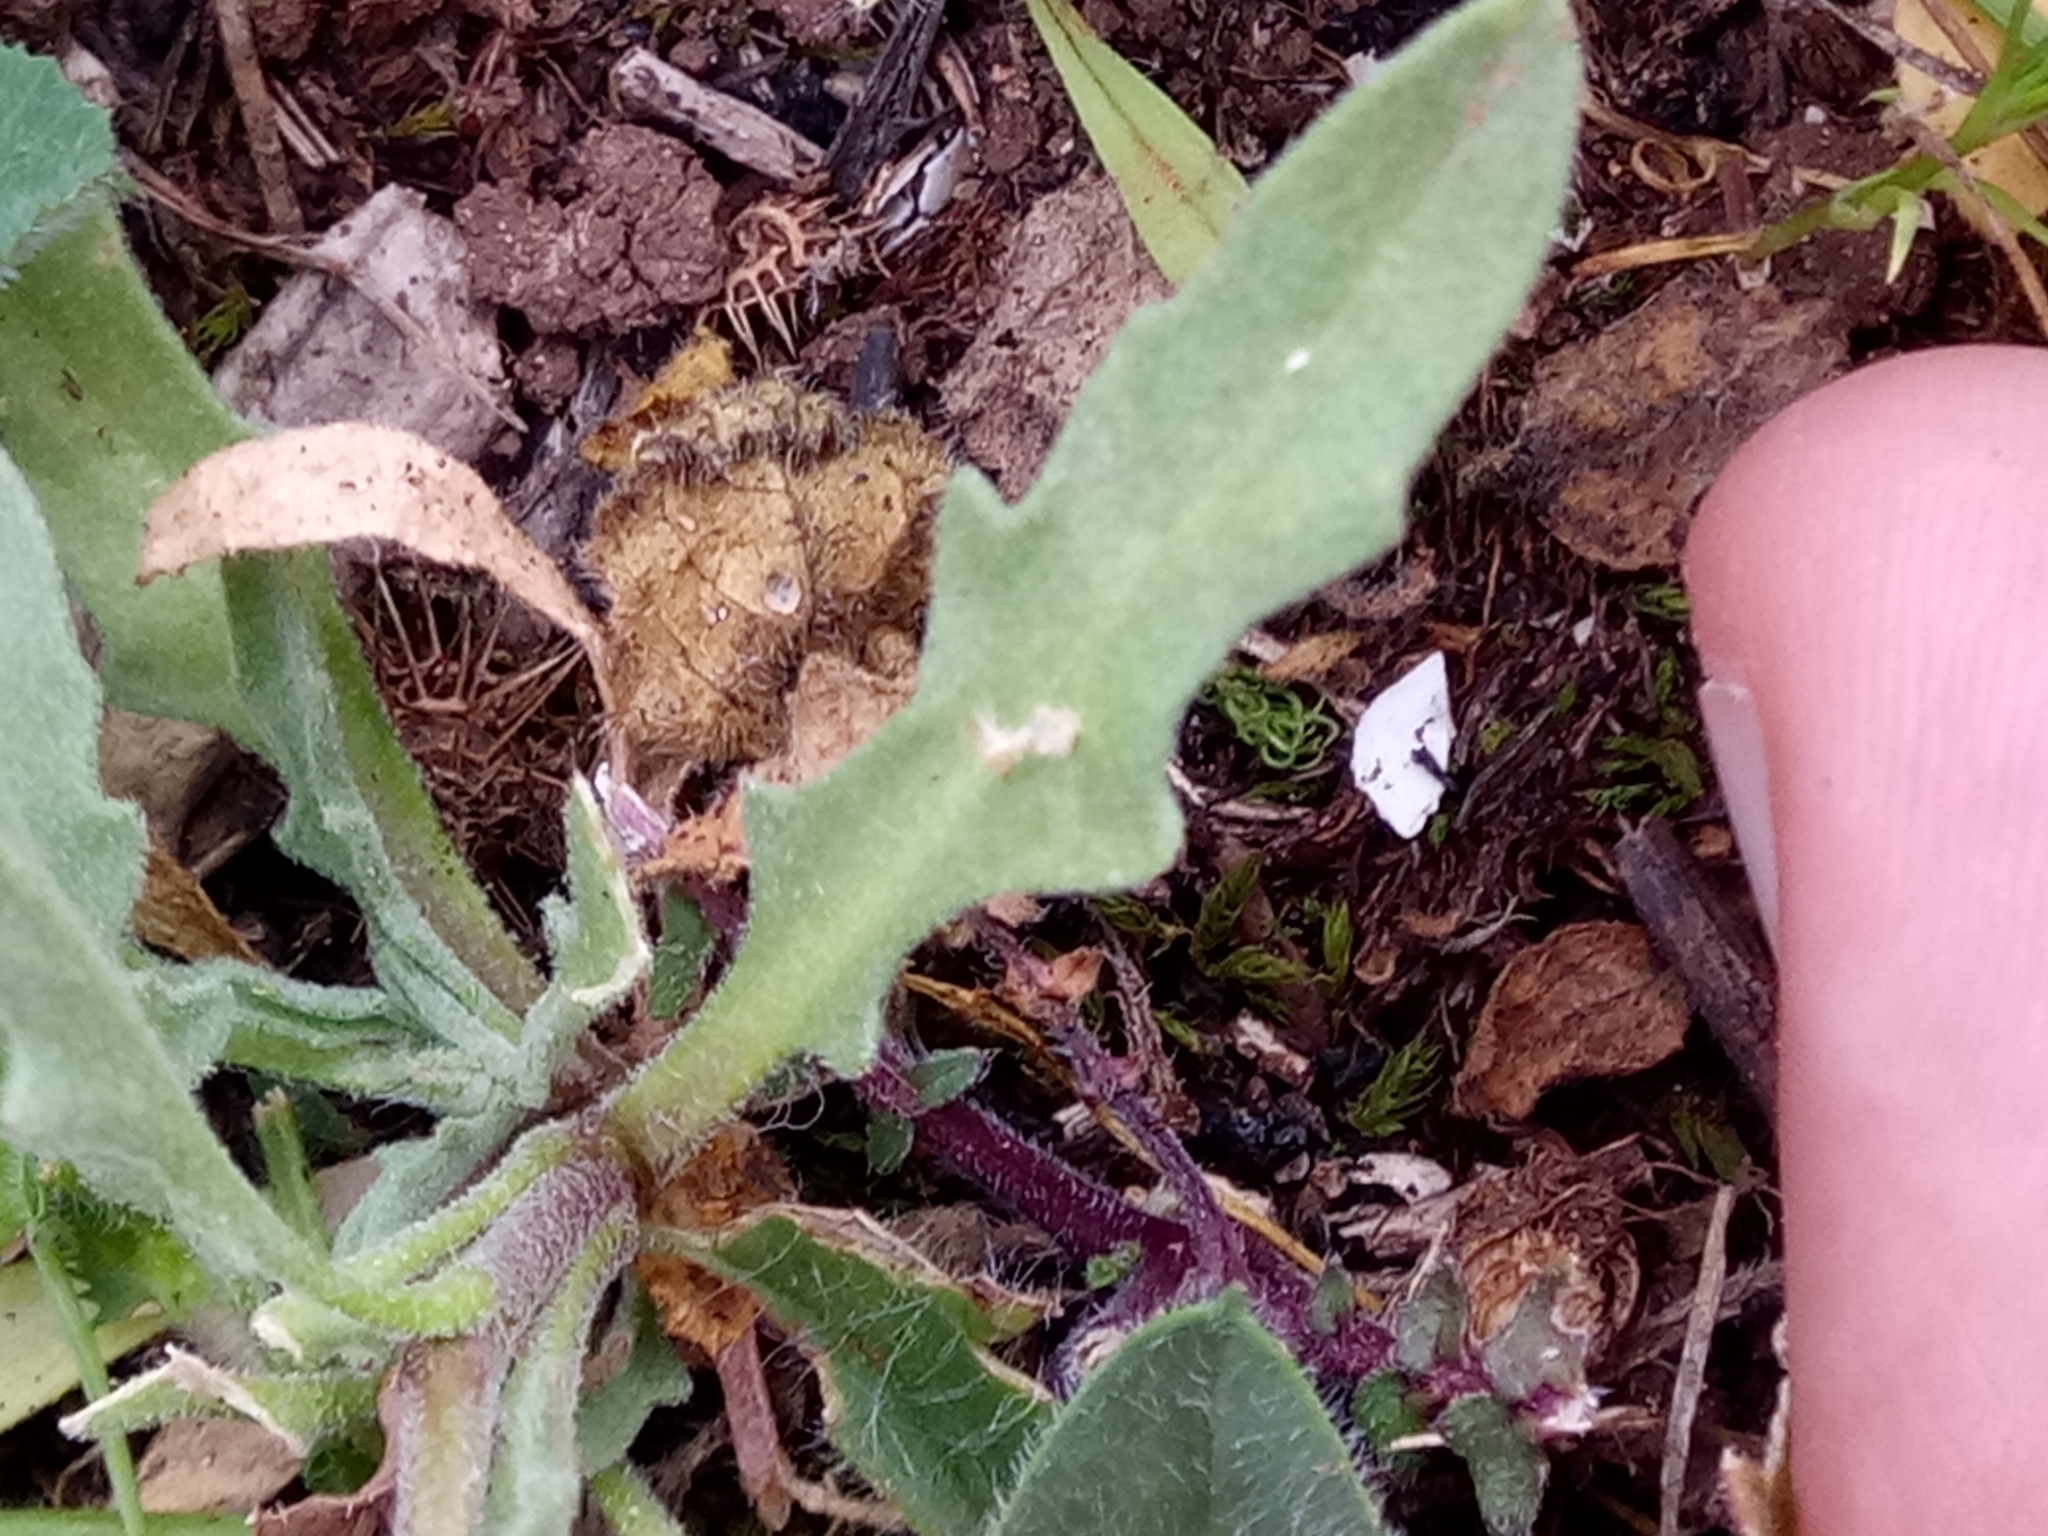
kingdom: Plantae
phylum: Tracheophyta
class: Magnoliopsida
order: Brassicales
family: Brassicaceae
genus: Matthiola
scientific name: Matthiola lunata
